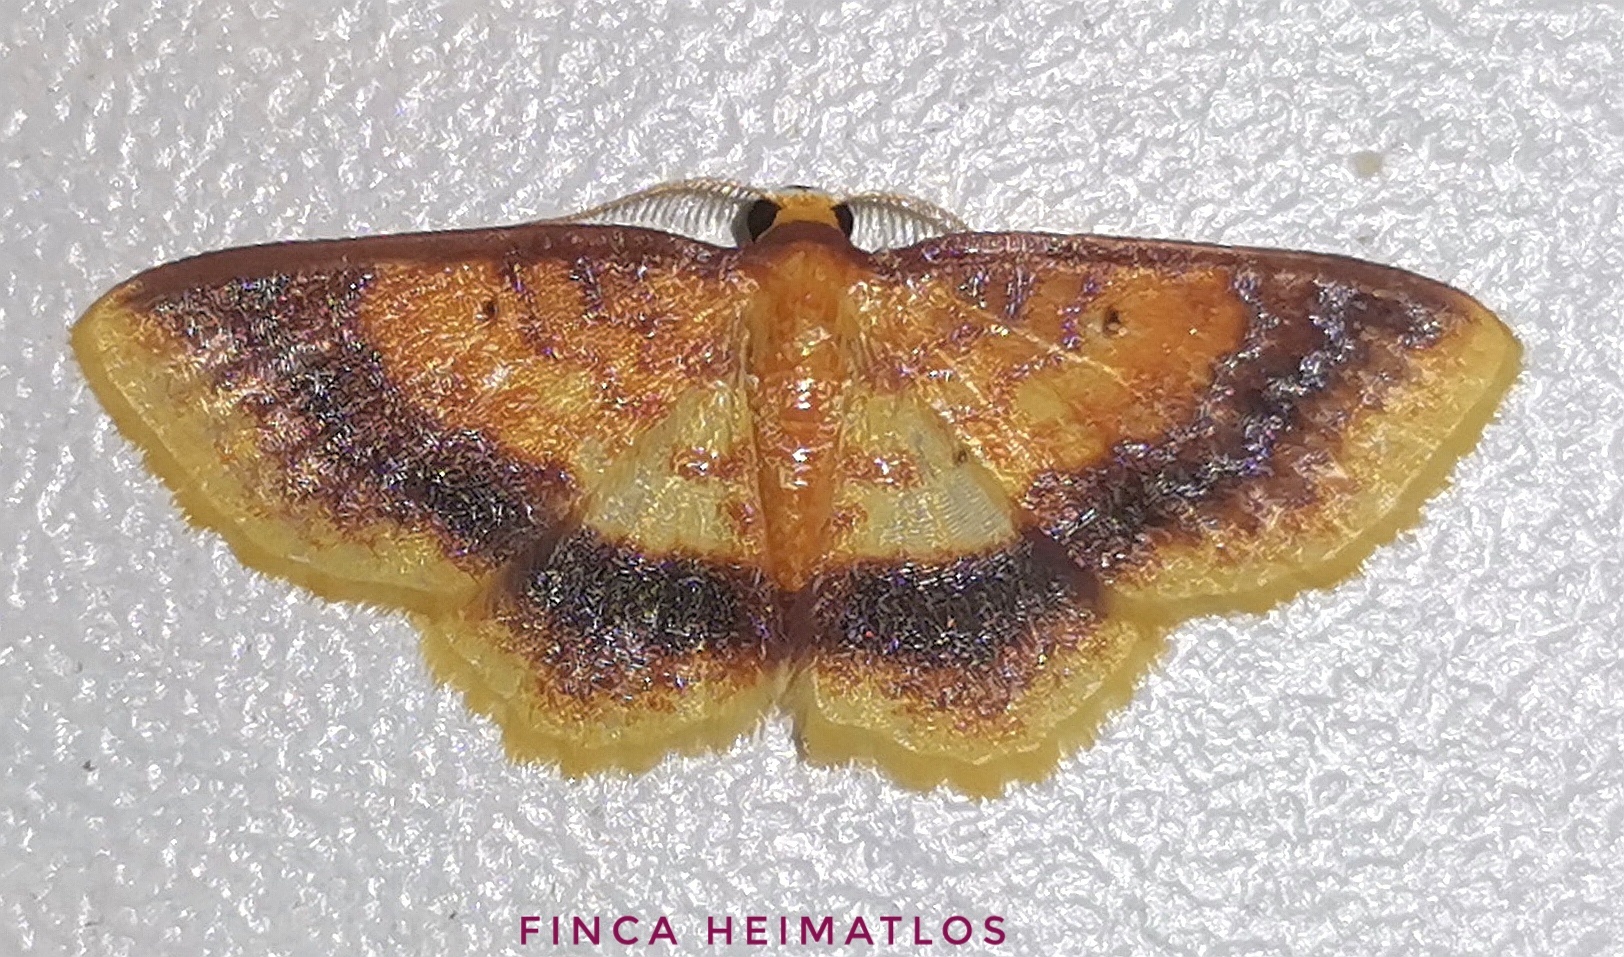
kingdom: Animalia
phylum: Arthropoda
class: Insecta
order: Lepidoptera
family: Geometridae
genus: Eois
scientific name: Eois fasciata
